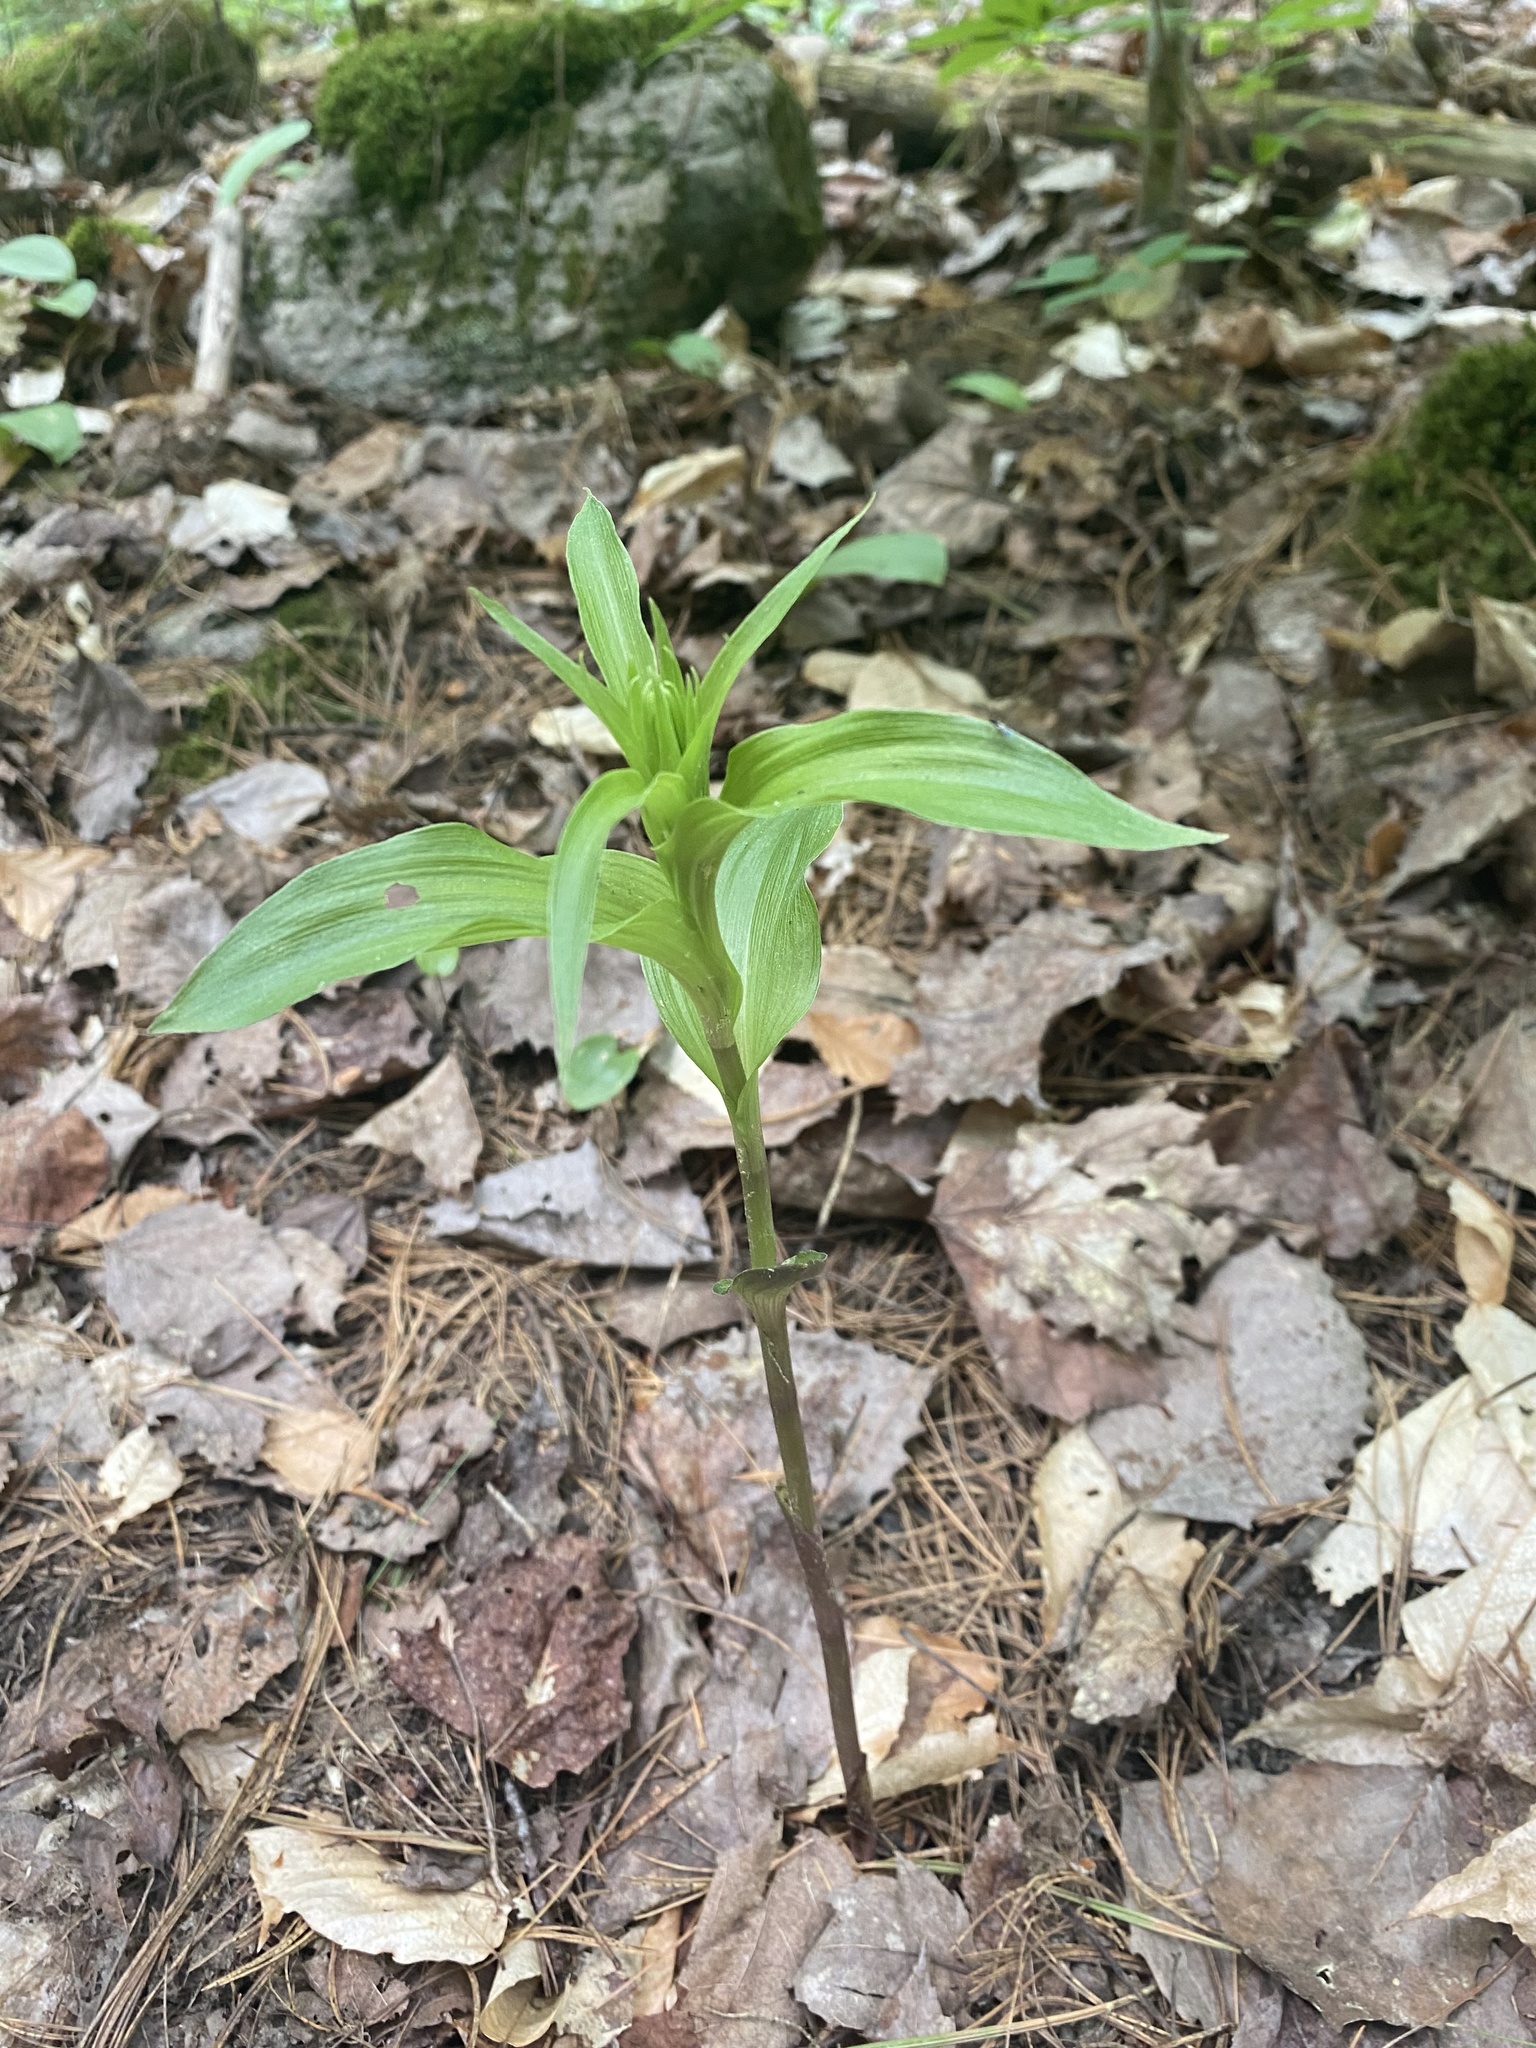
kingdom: Plantae
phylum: Tracheophyta
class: Liliopsida
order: Asparagales
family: Orchidaceae
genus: Epipactis
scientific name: Epipactis helleborine
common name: Broad-leaved helleborine
